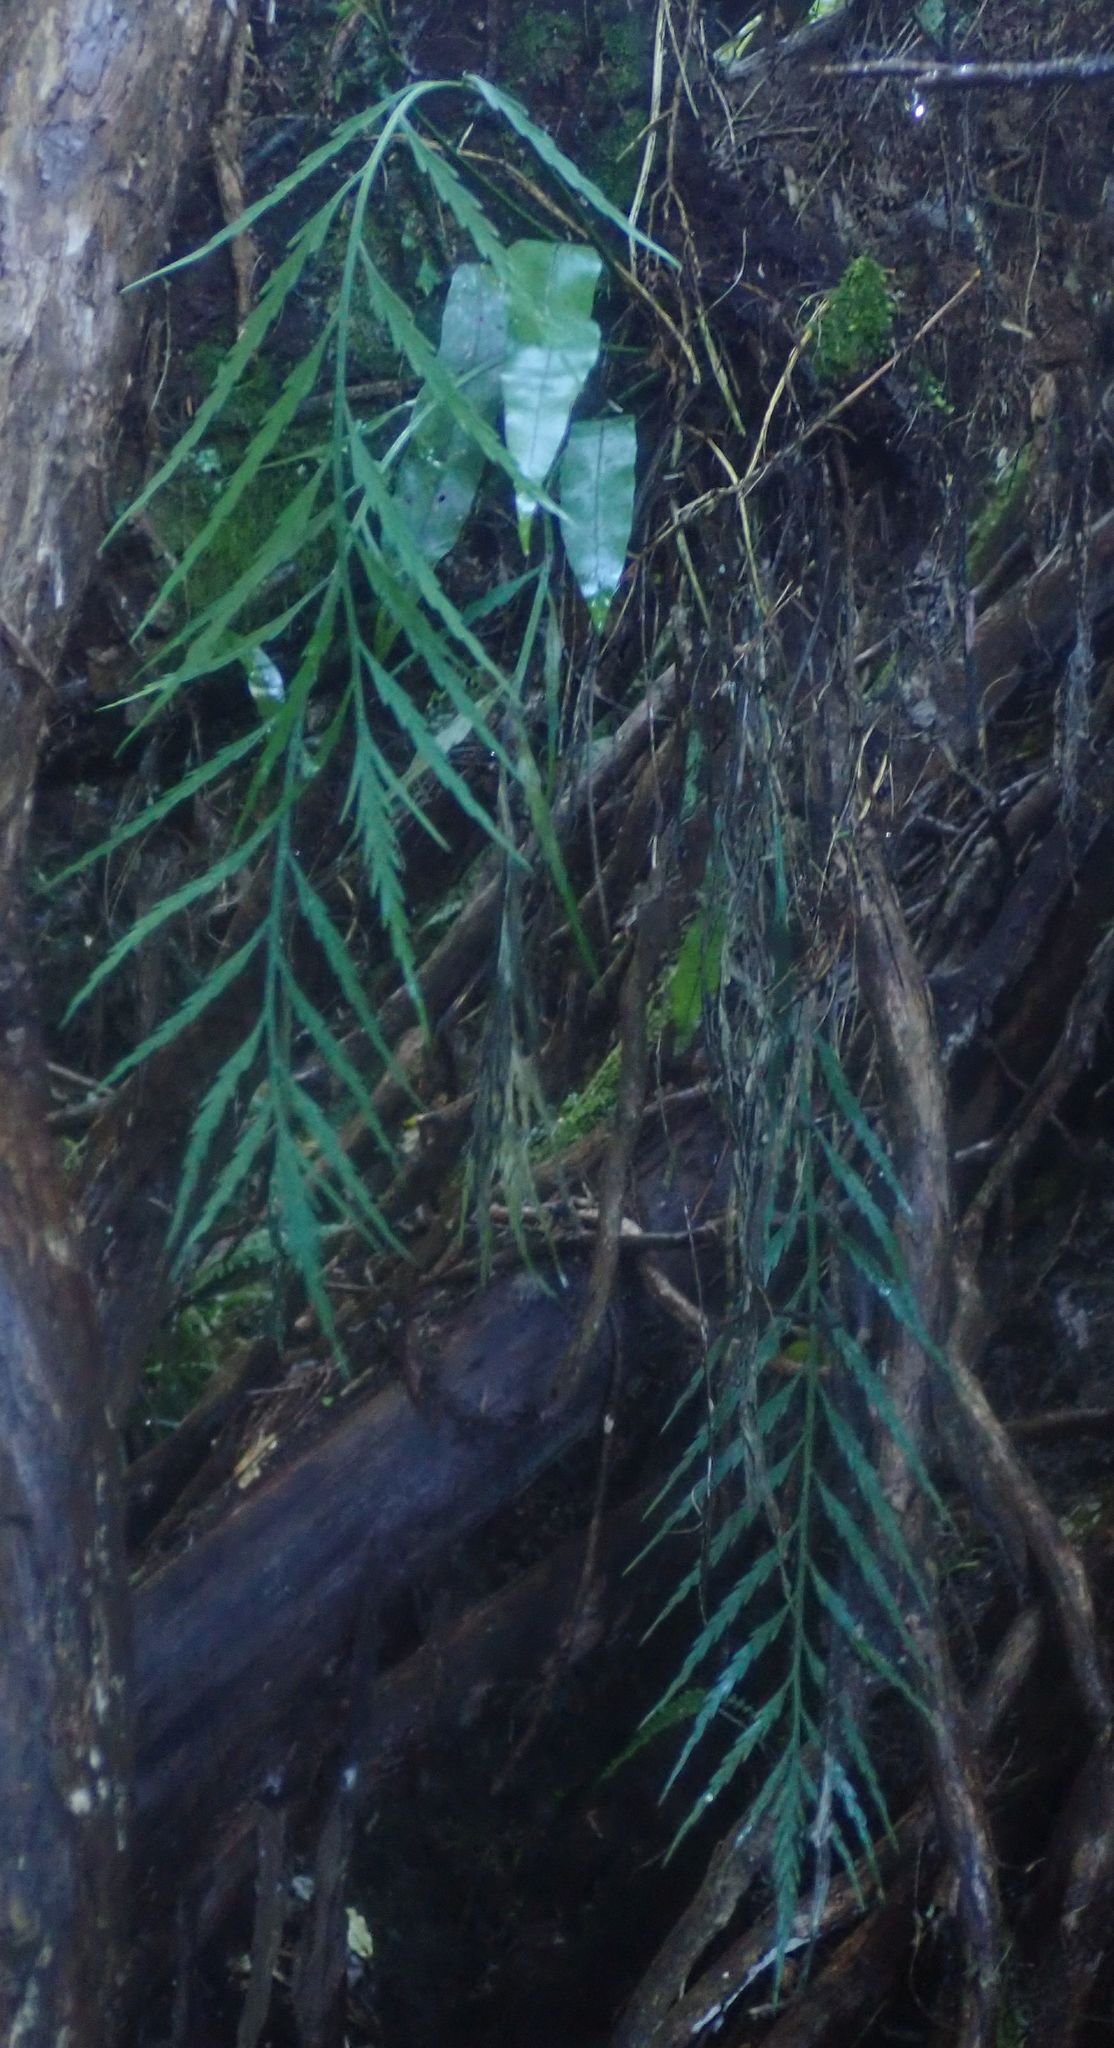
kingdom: Plantae
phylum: Tracheophyta
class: Polypodiopsida
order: Polypodiales
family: Aspleniaceae
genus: Asplenium
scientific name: Asplenium flaccidum
